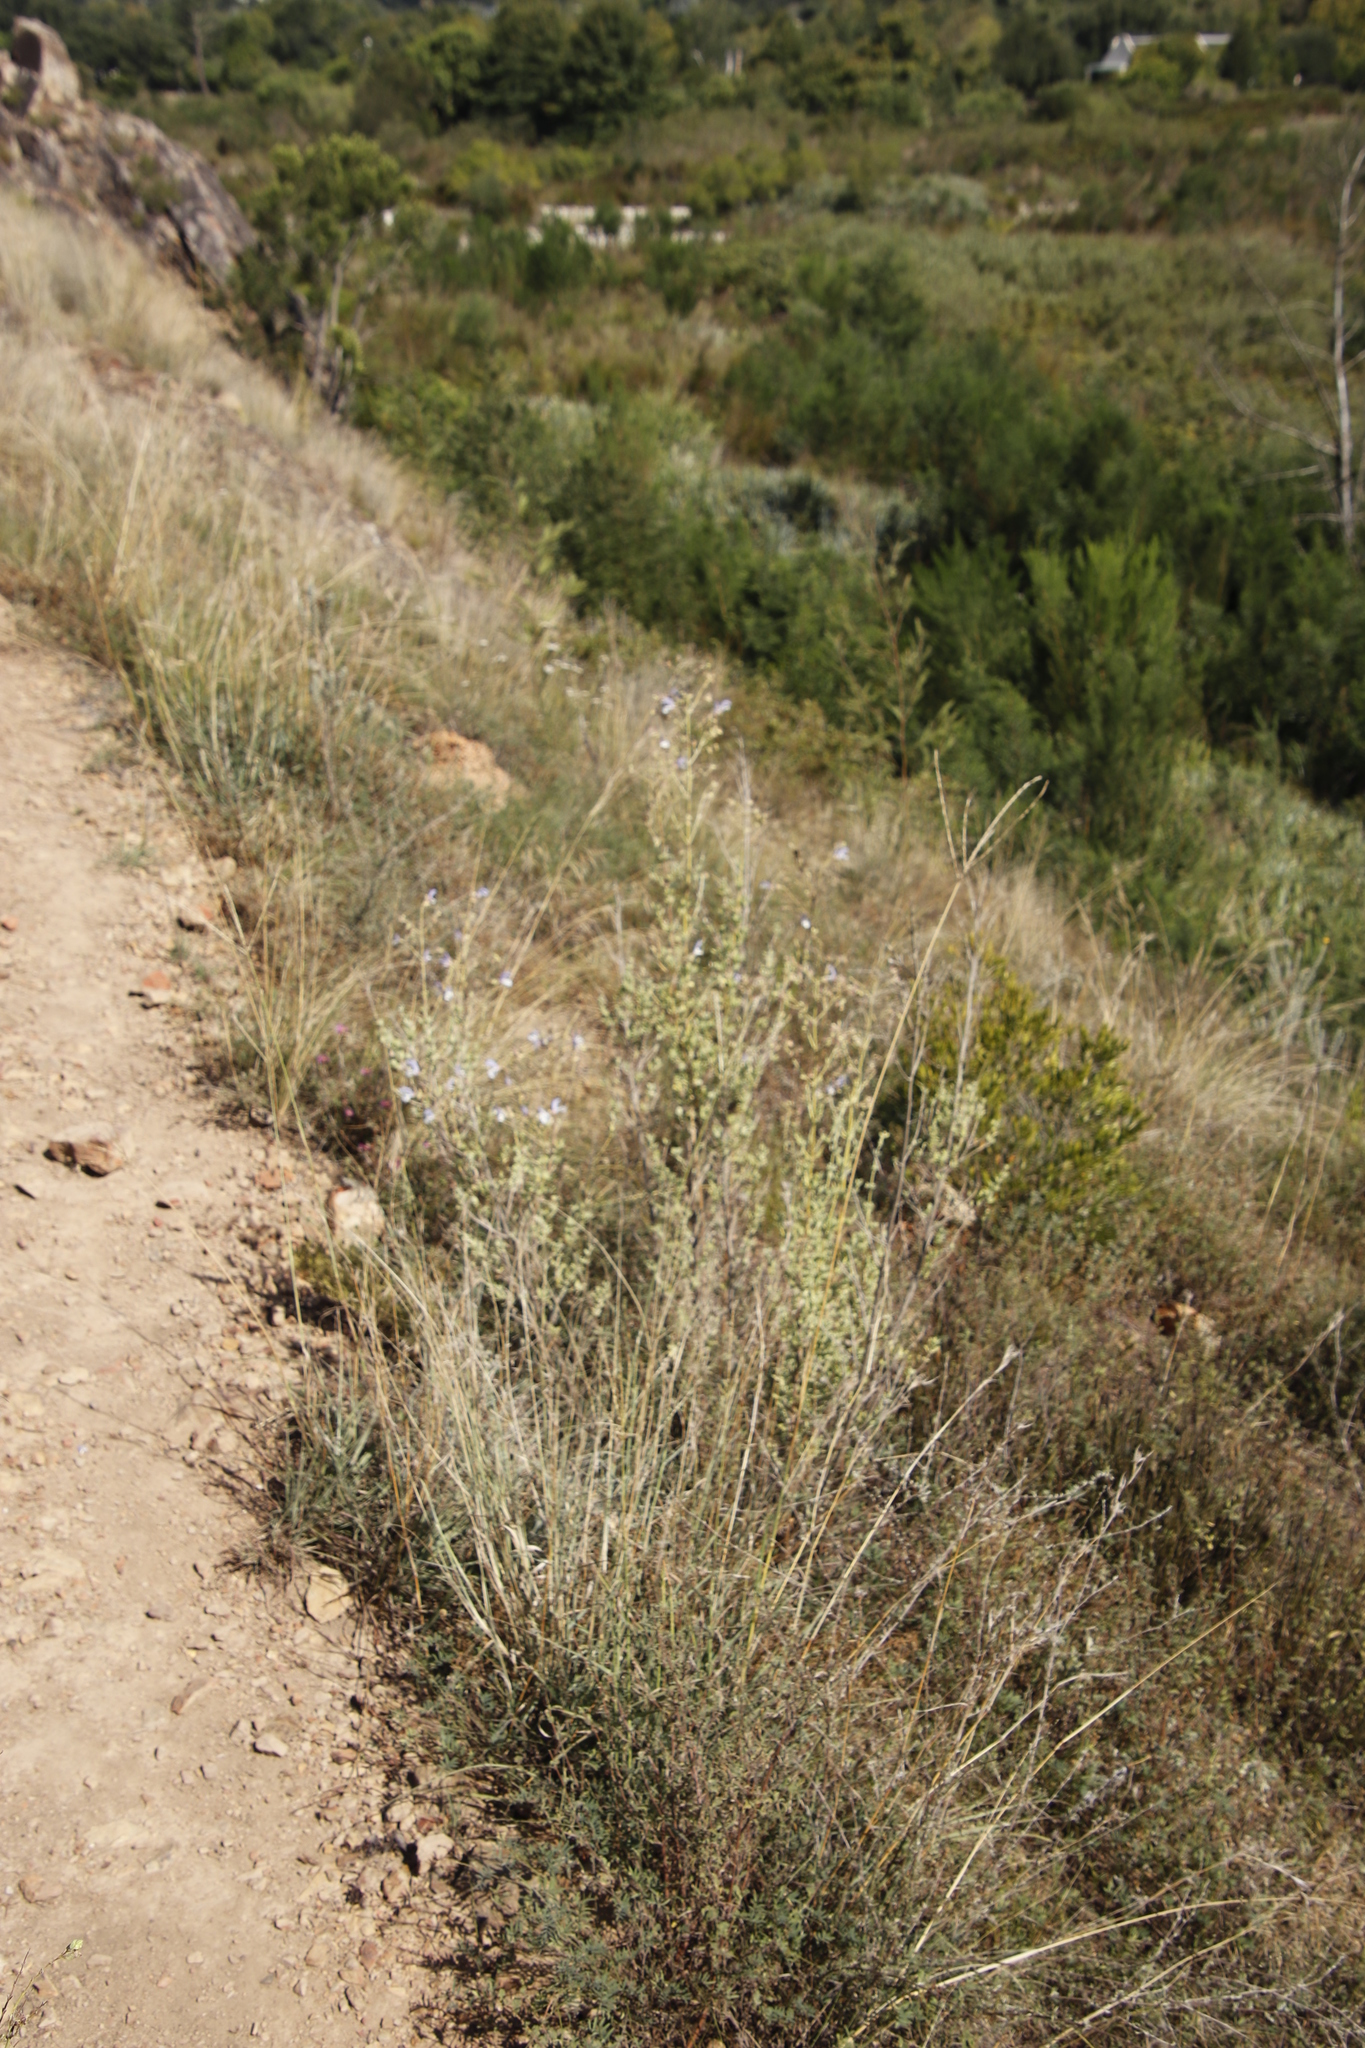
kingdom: Plantae
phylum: Tracheophyta
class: Magnoliopsida
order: Lamiales
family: Lamiaceae
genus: Salvia
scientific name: Salvia chamelaeagnea
